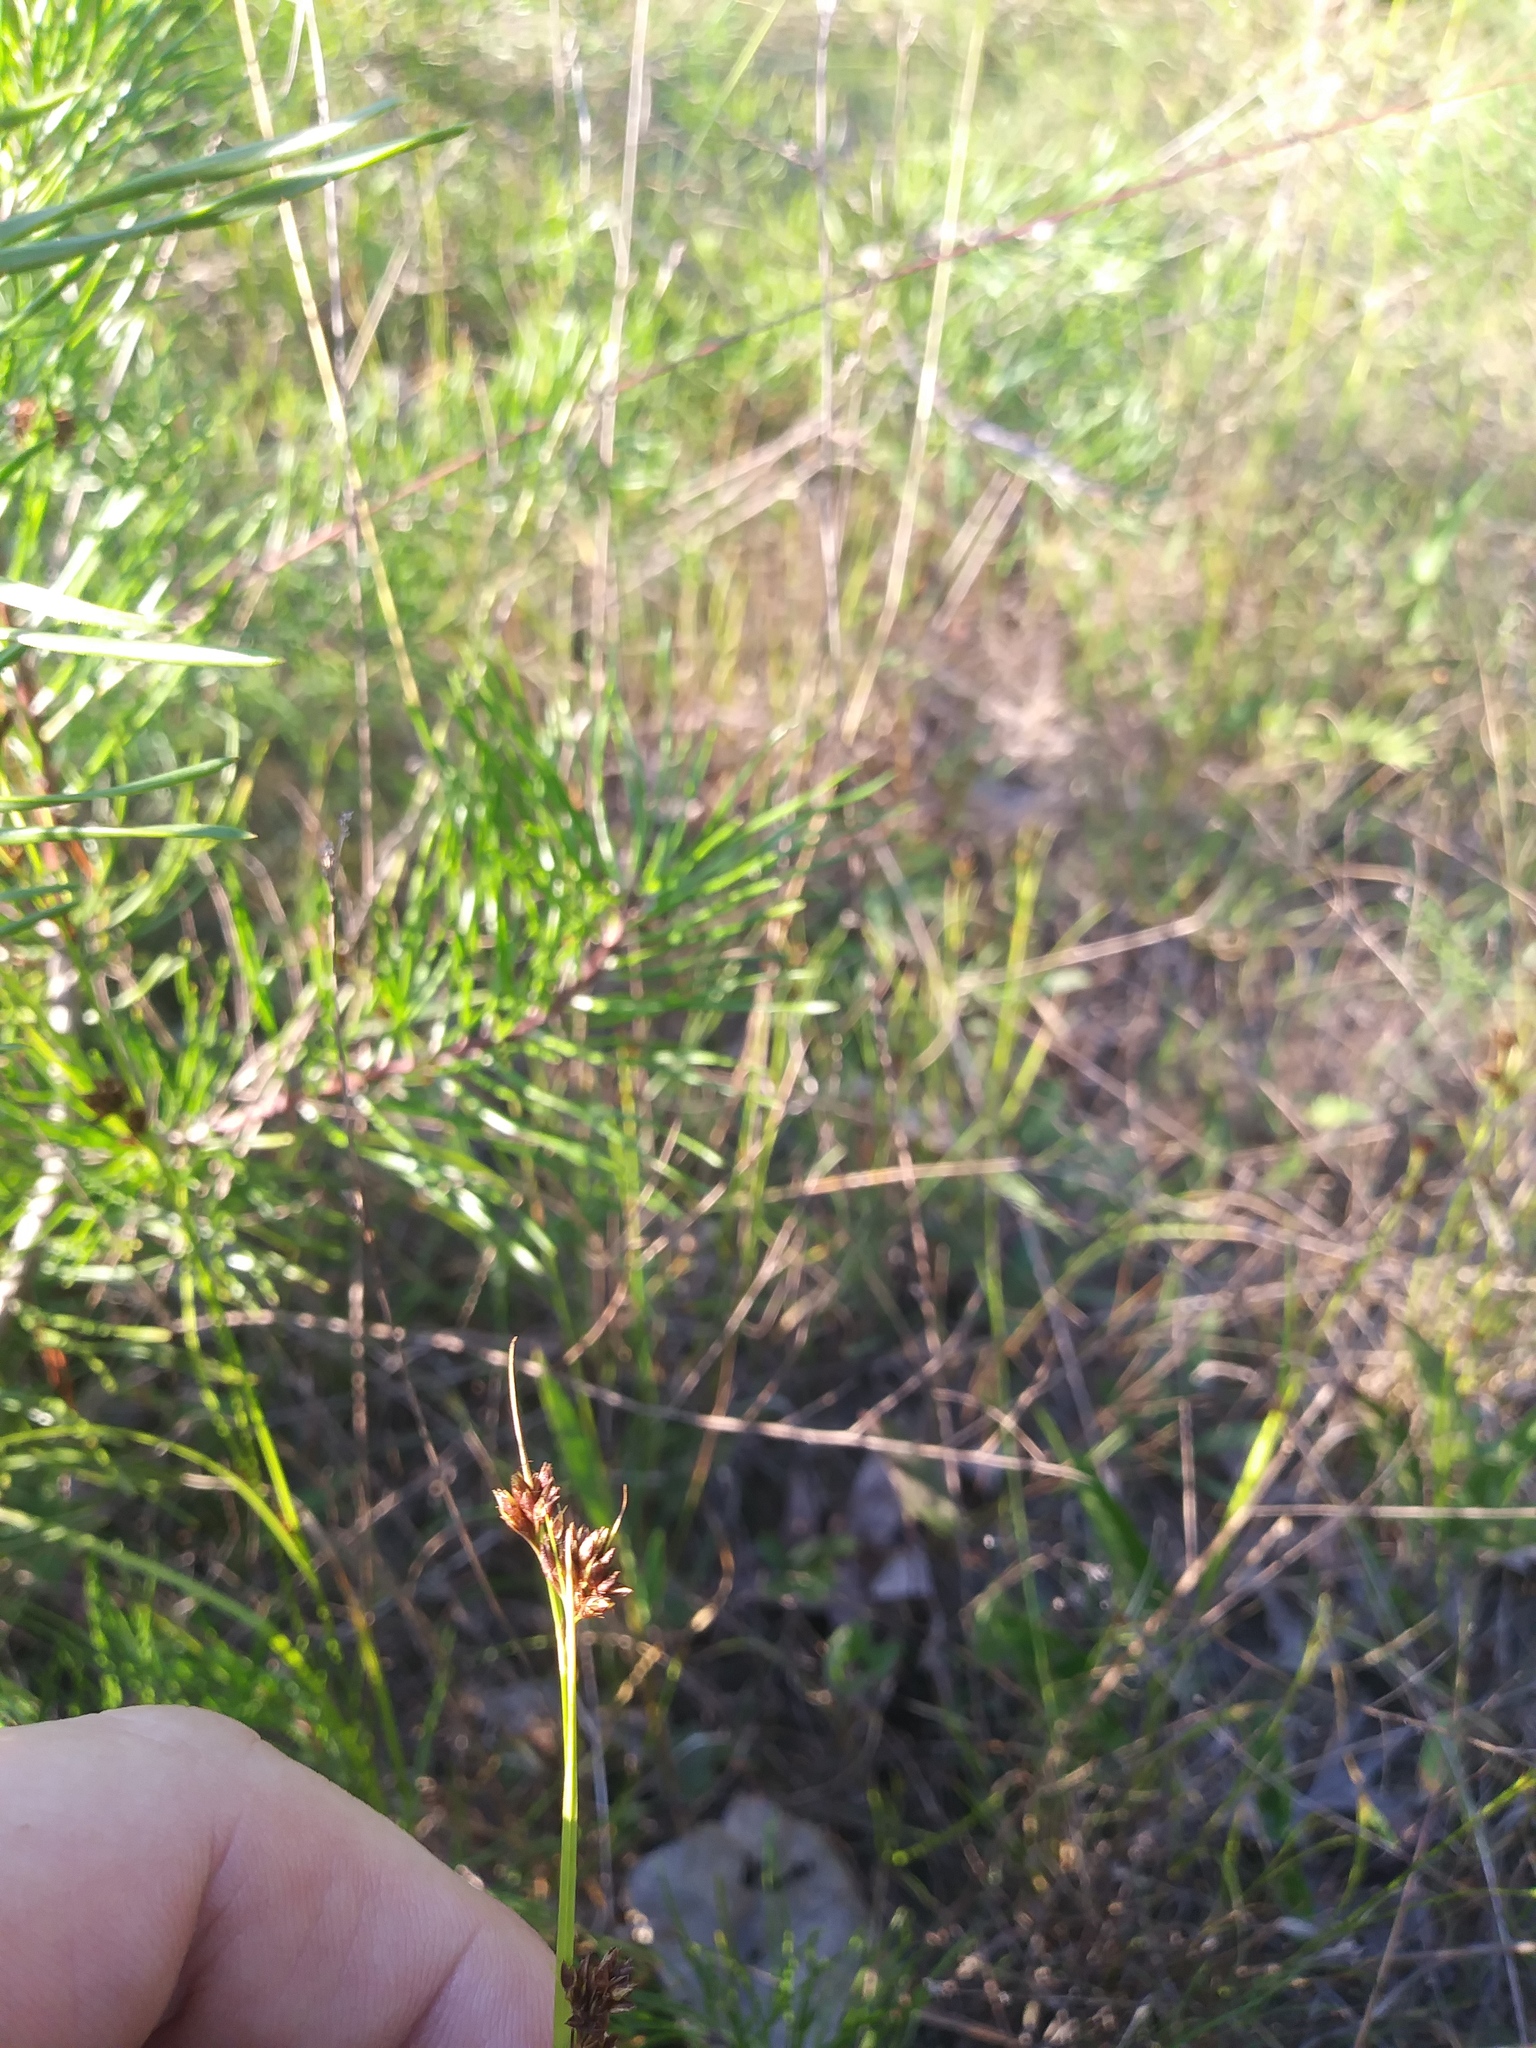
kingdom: Plantae
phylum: Tracheophyta
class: Liliopsida
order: Poales
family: Cyperaceae
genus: Rhynchospora
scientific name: Rhynchospora capitellata
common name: Brownish beaksedge
